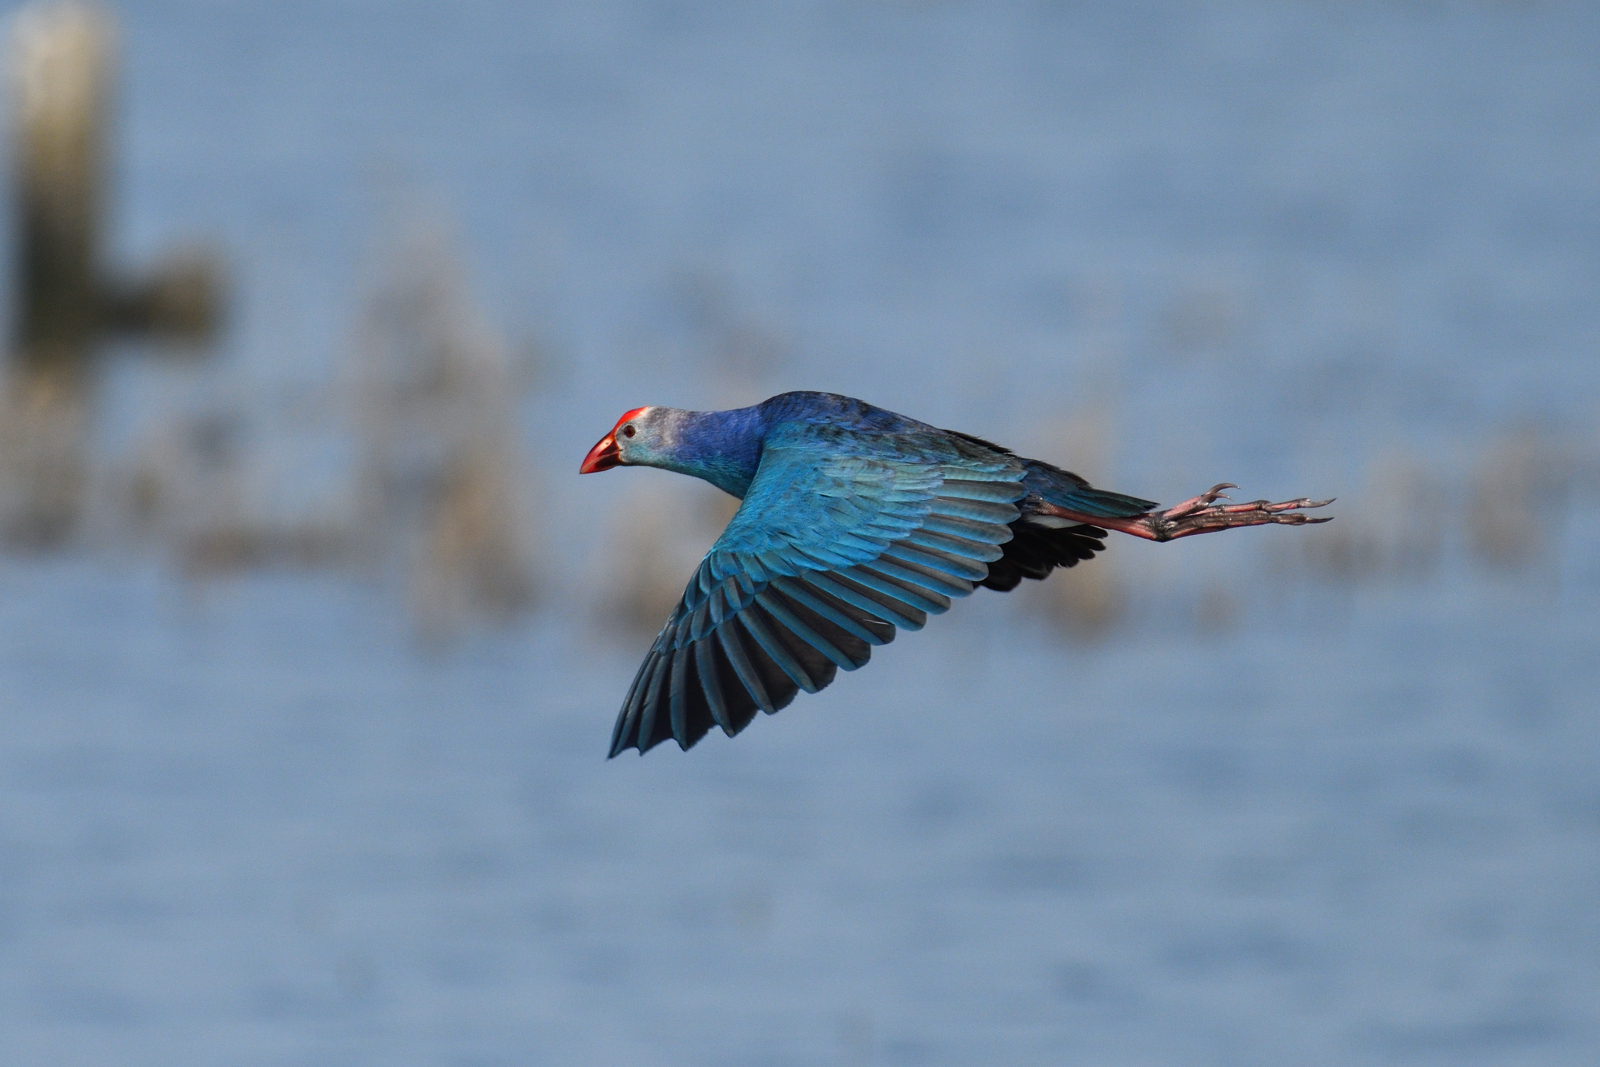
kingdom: Animalia
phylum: Chordata
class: Aves
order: Gruiformes
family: Rallidae
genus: Porphyrio
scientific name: Porphyrio porphyrio
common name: Purple swamphen
